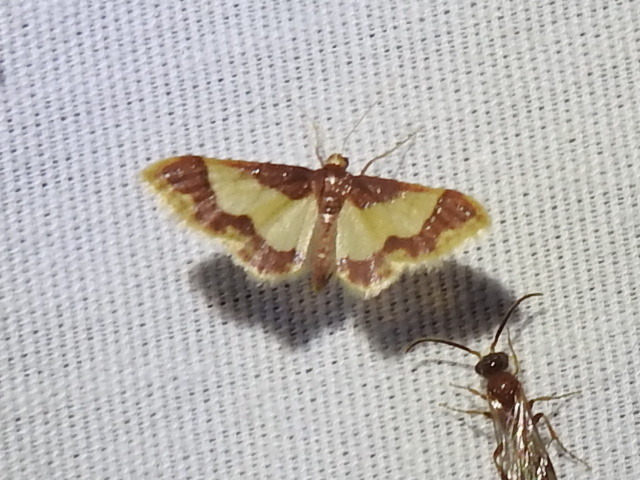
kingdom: Animalia
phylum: Arthropoda
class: Insecta
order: Lepidoptera
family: Geometridae
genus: Idaea
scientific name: Idaea basinta
